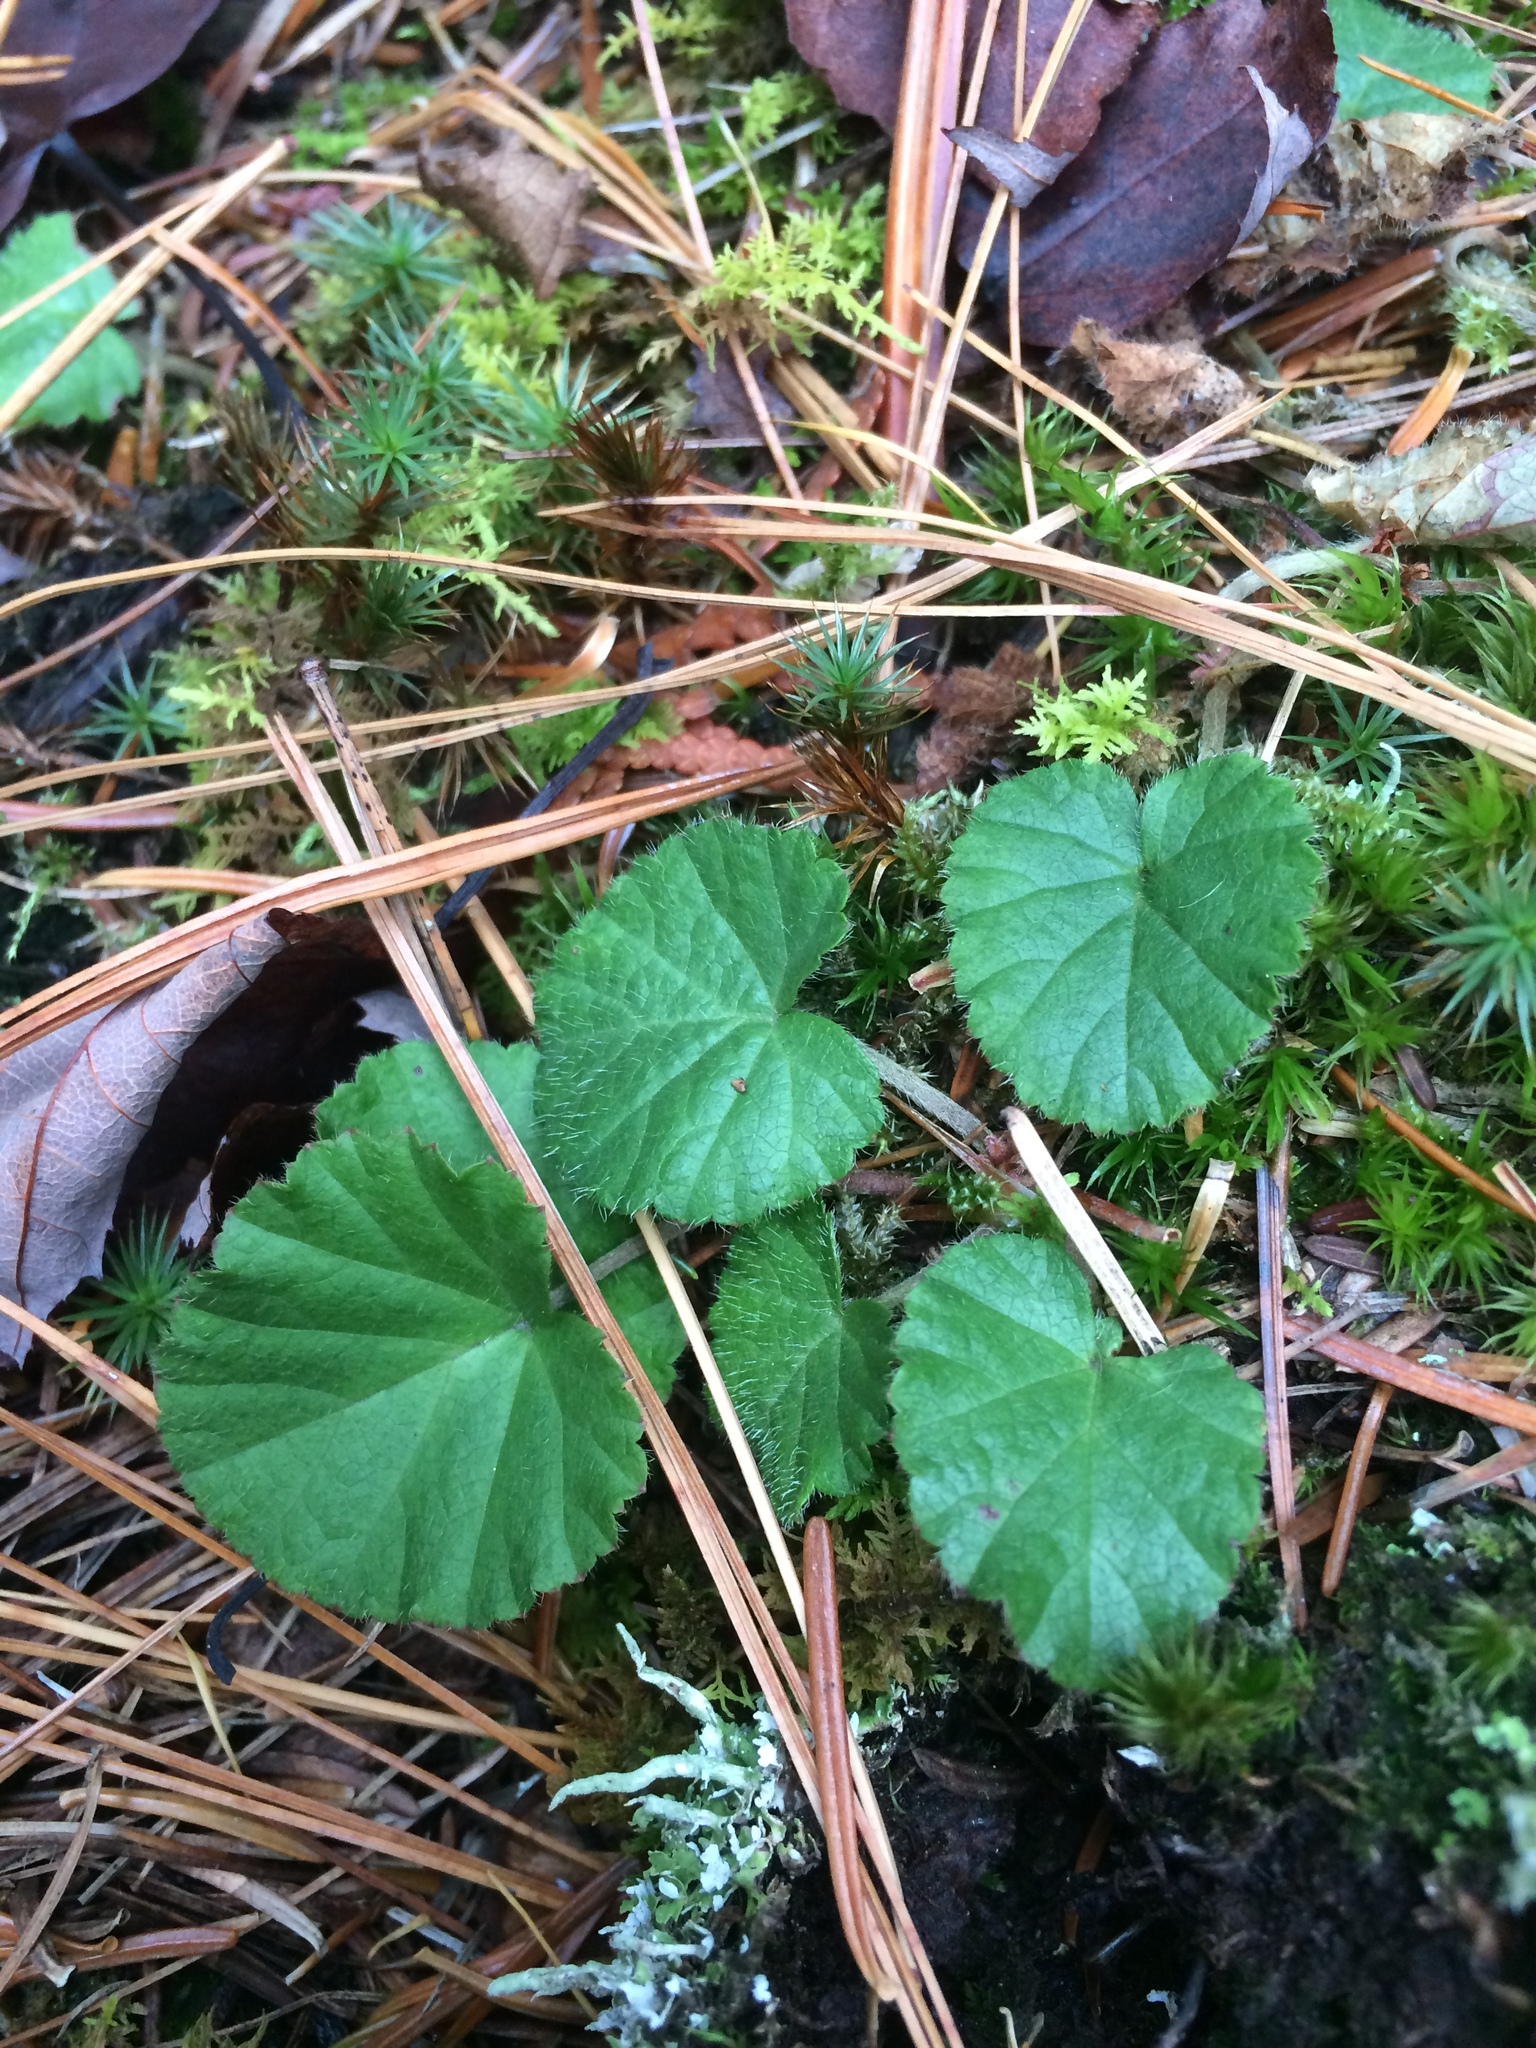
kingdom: Plantae
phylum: Tracheophyta
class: Magnoliopsida
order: Rosales
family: Rosaceae
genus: Dalibarda
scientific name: Dalibarda repens
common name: Dewdrop
